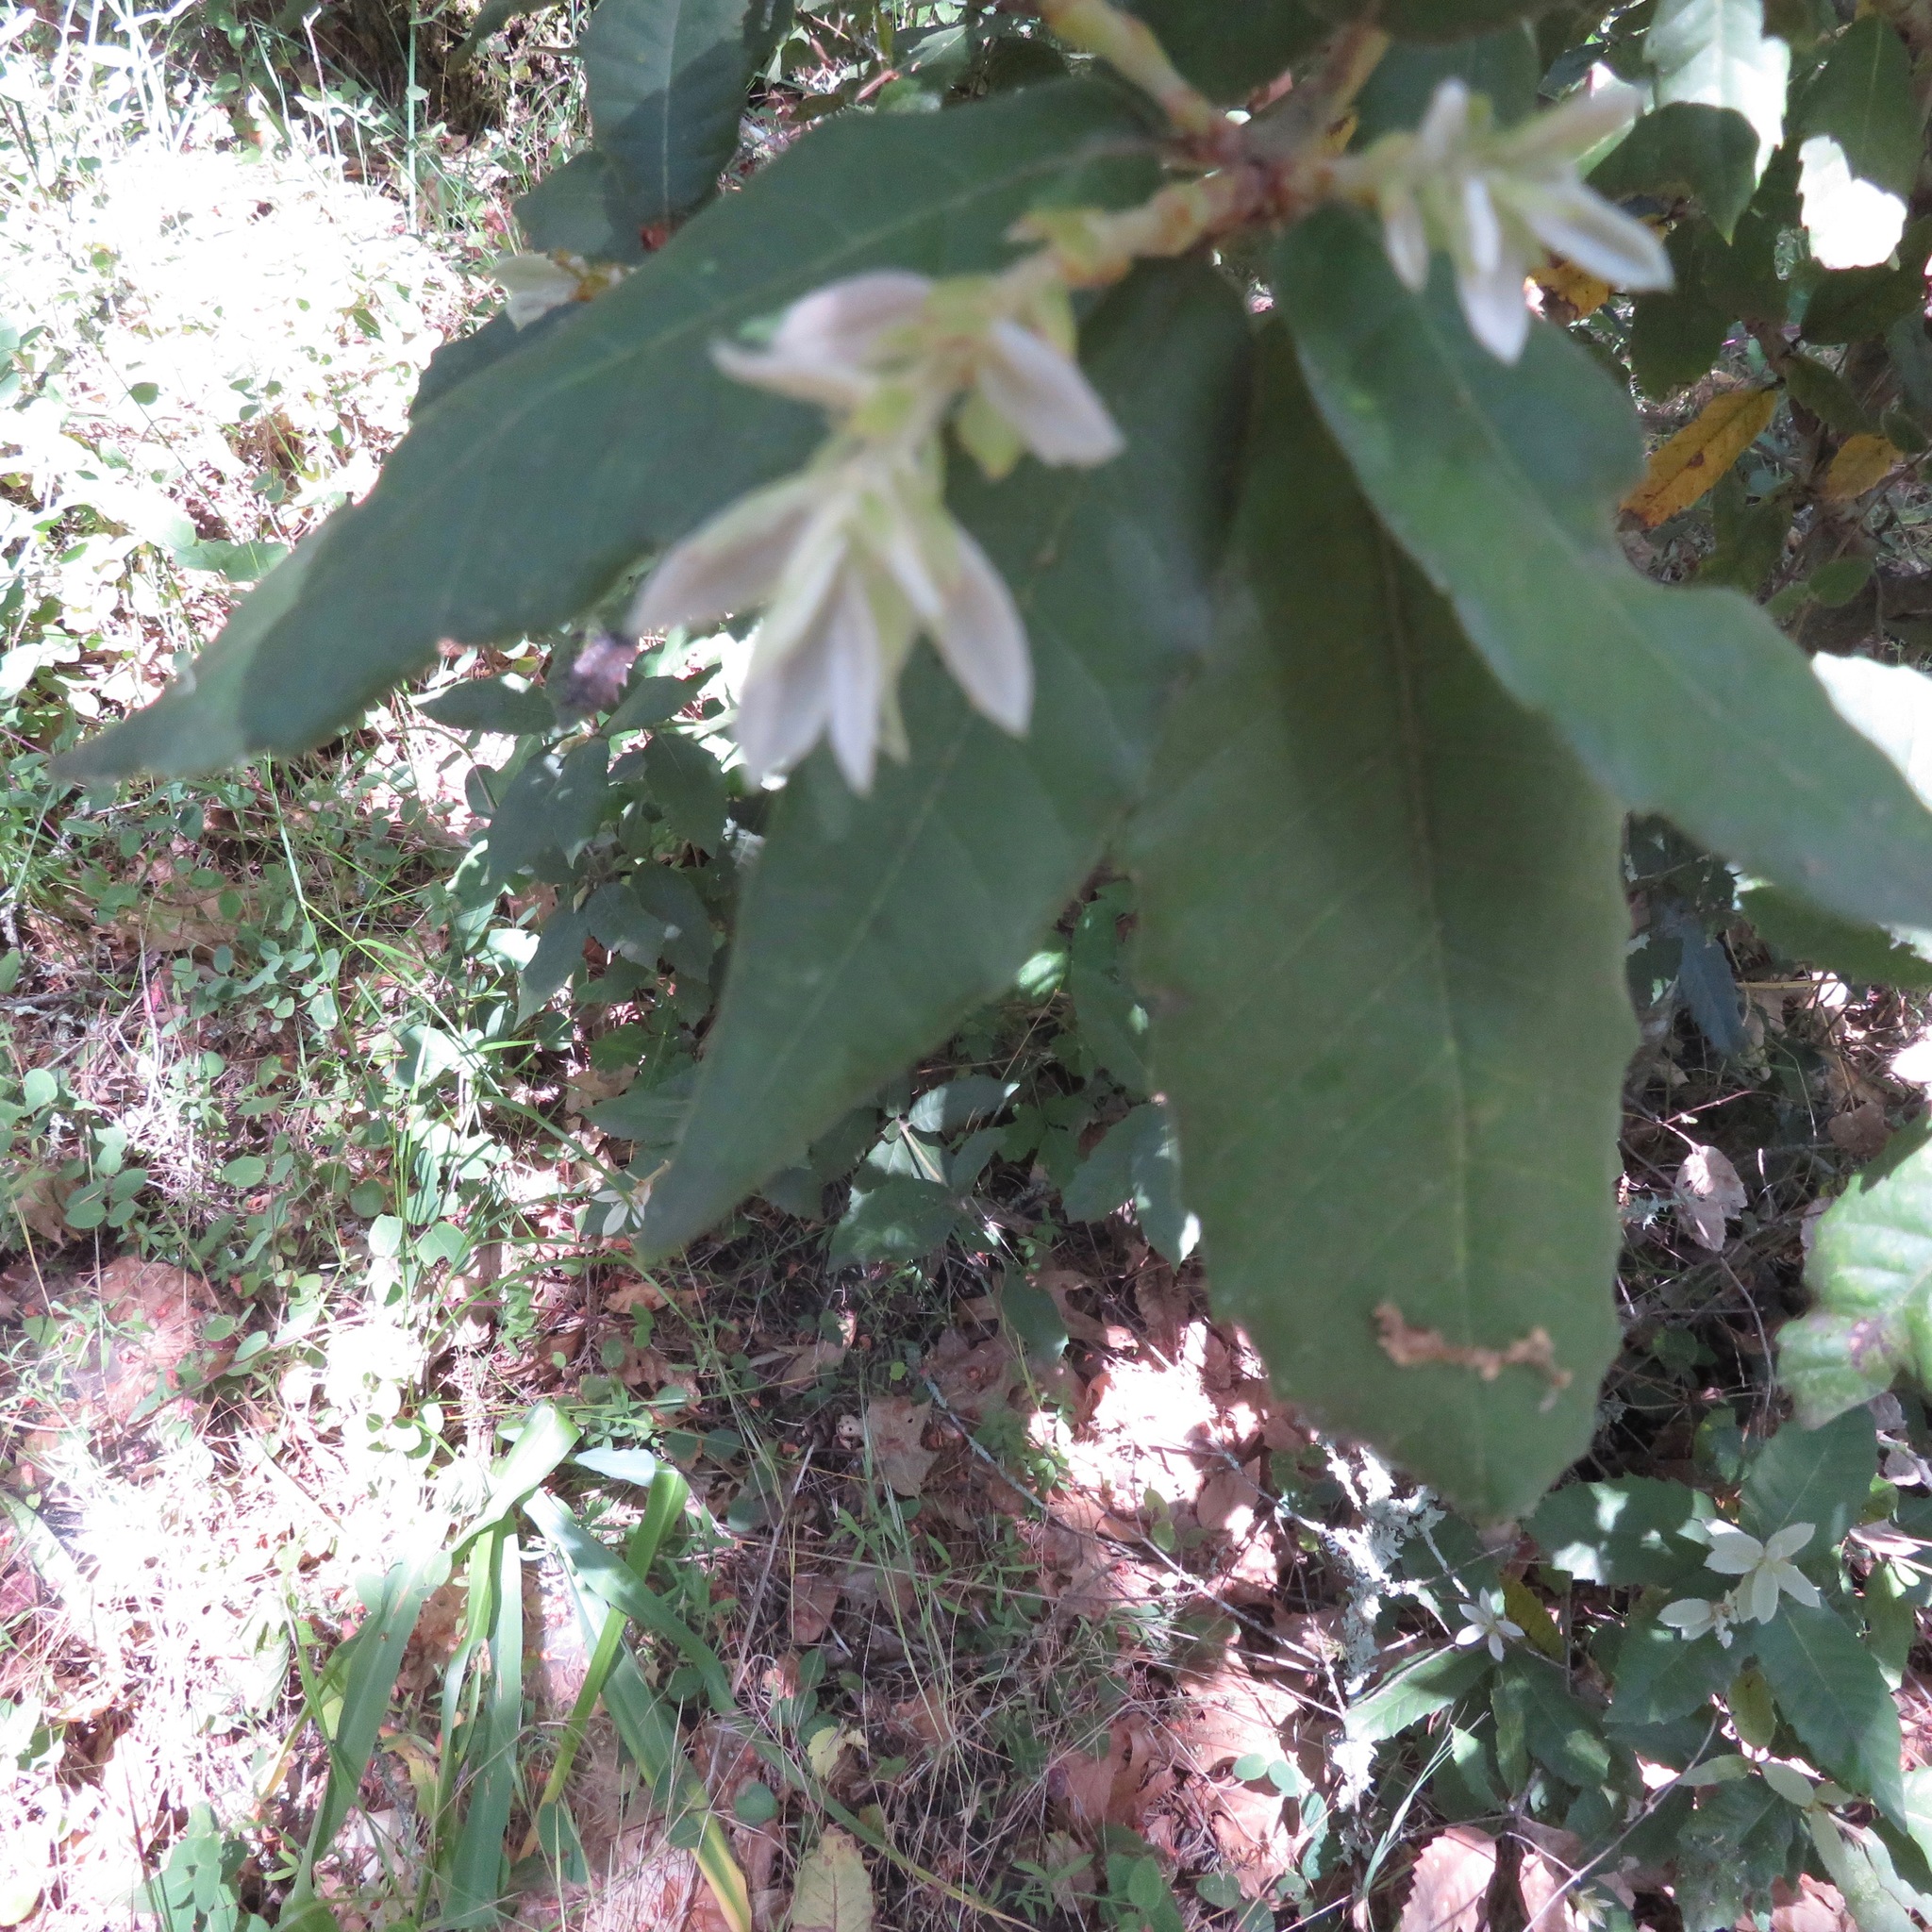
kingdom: Plantae
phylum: Tracheophyta
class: Magnoliopsida
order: Fagales
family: Fagaceae
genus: Notholithocarpus
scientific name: Notholithocarpus densiflorus
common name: Tan bark oak
